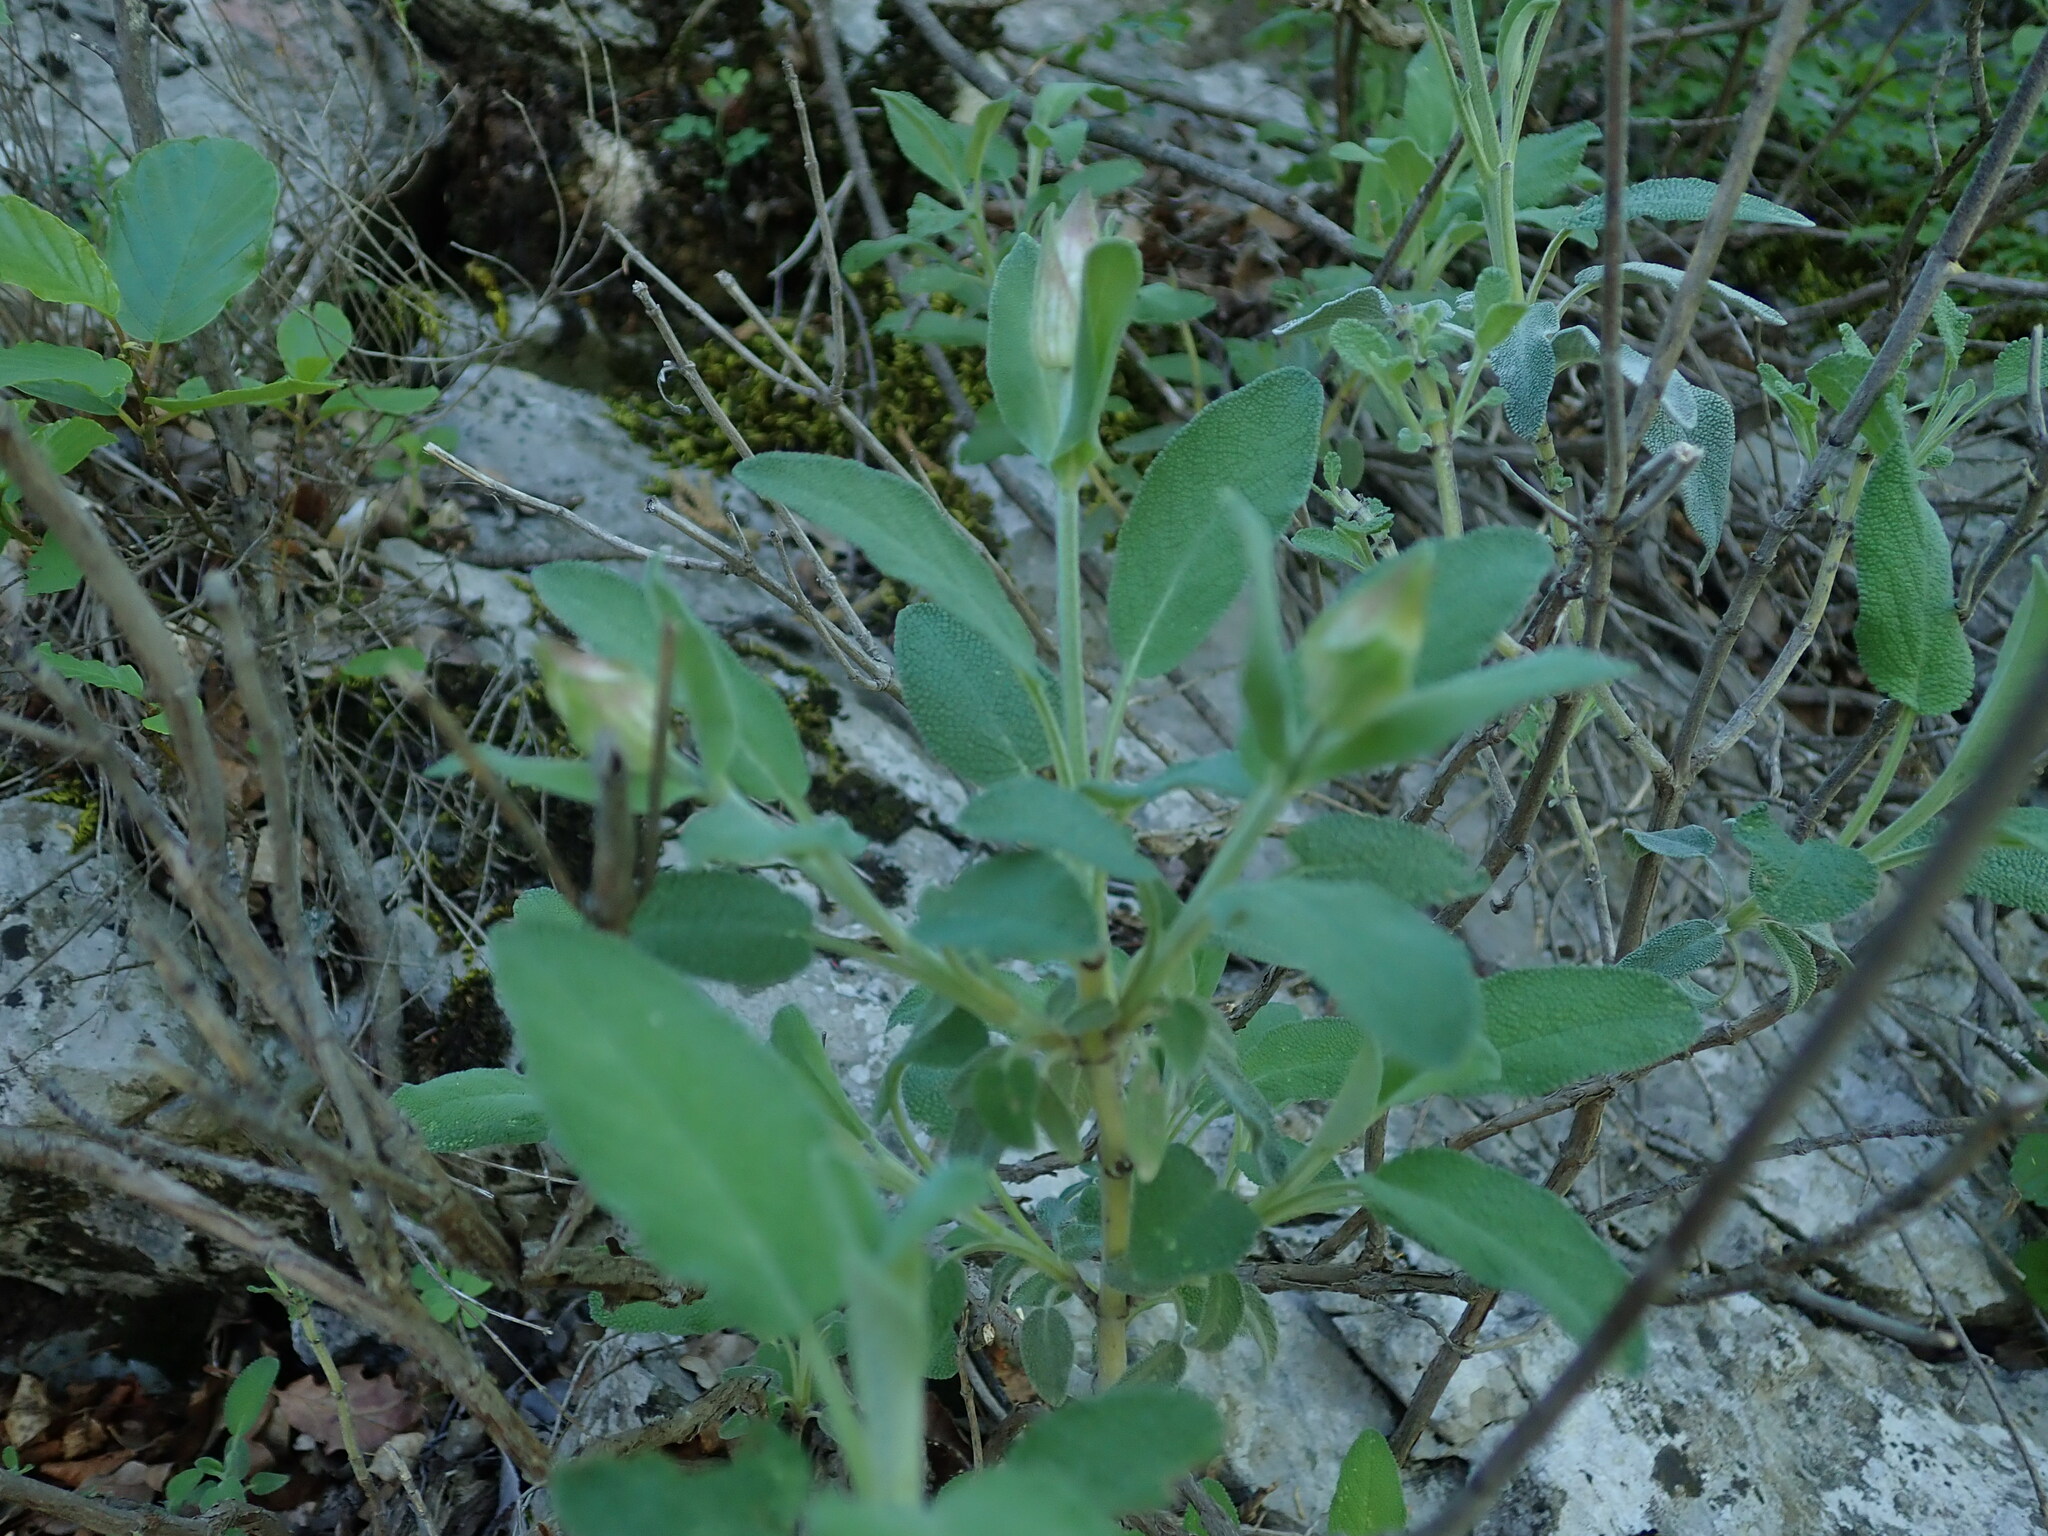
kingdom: Plantae
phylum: Tracheophyta
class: Magnoliopsida
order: Lamiales
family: Lamiaceae
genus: Salvia
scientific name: Salvia officinalis
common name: Sage
